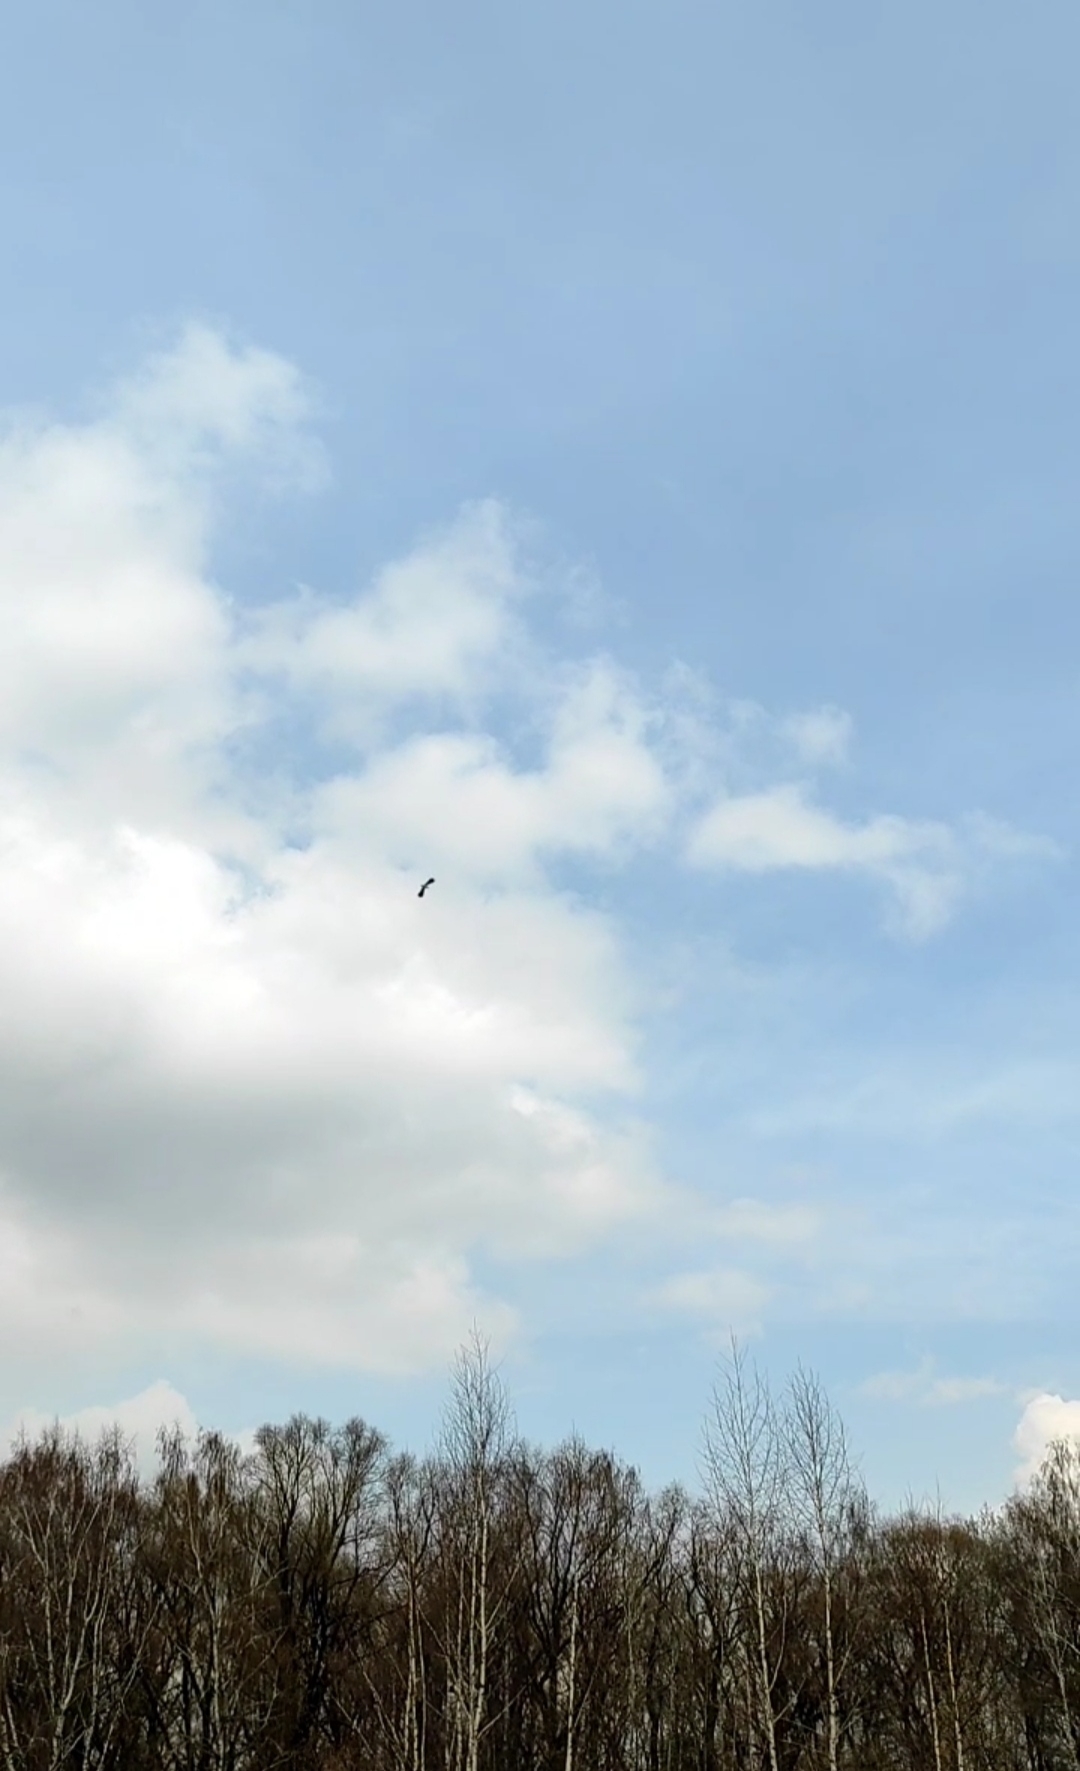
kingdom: Animalia
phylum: Chordata
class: Aves
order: Charadriiformes
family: Charadriidae
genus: Vanellus
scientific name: Vanellus vanellus
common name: Northern lapwing
